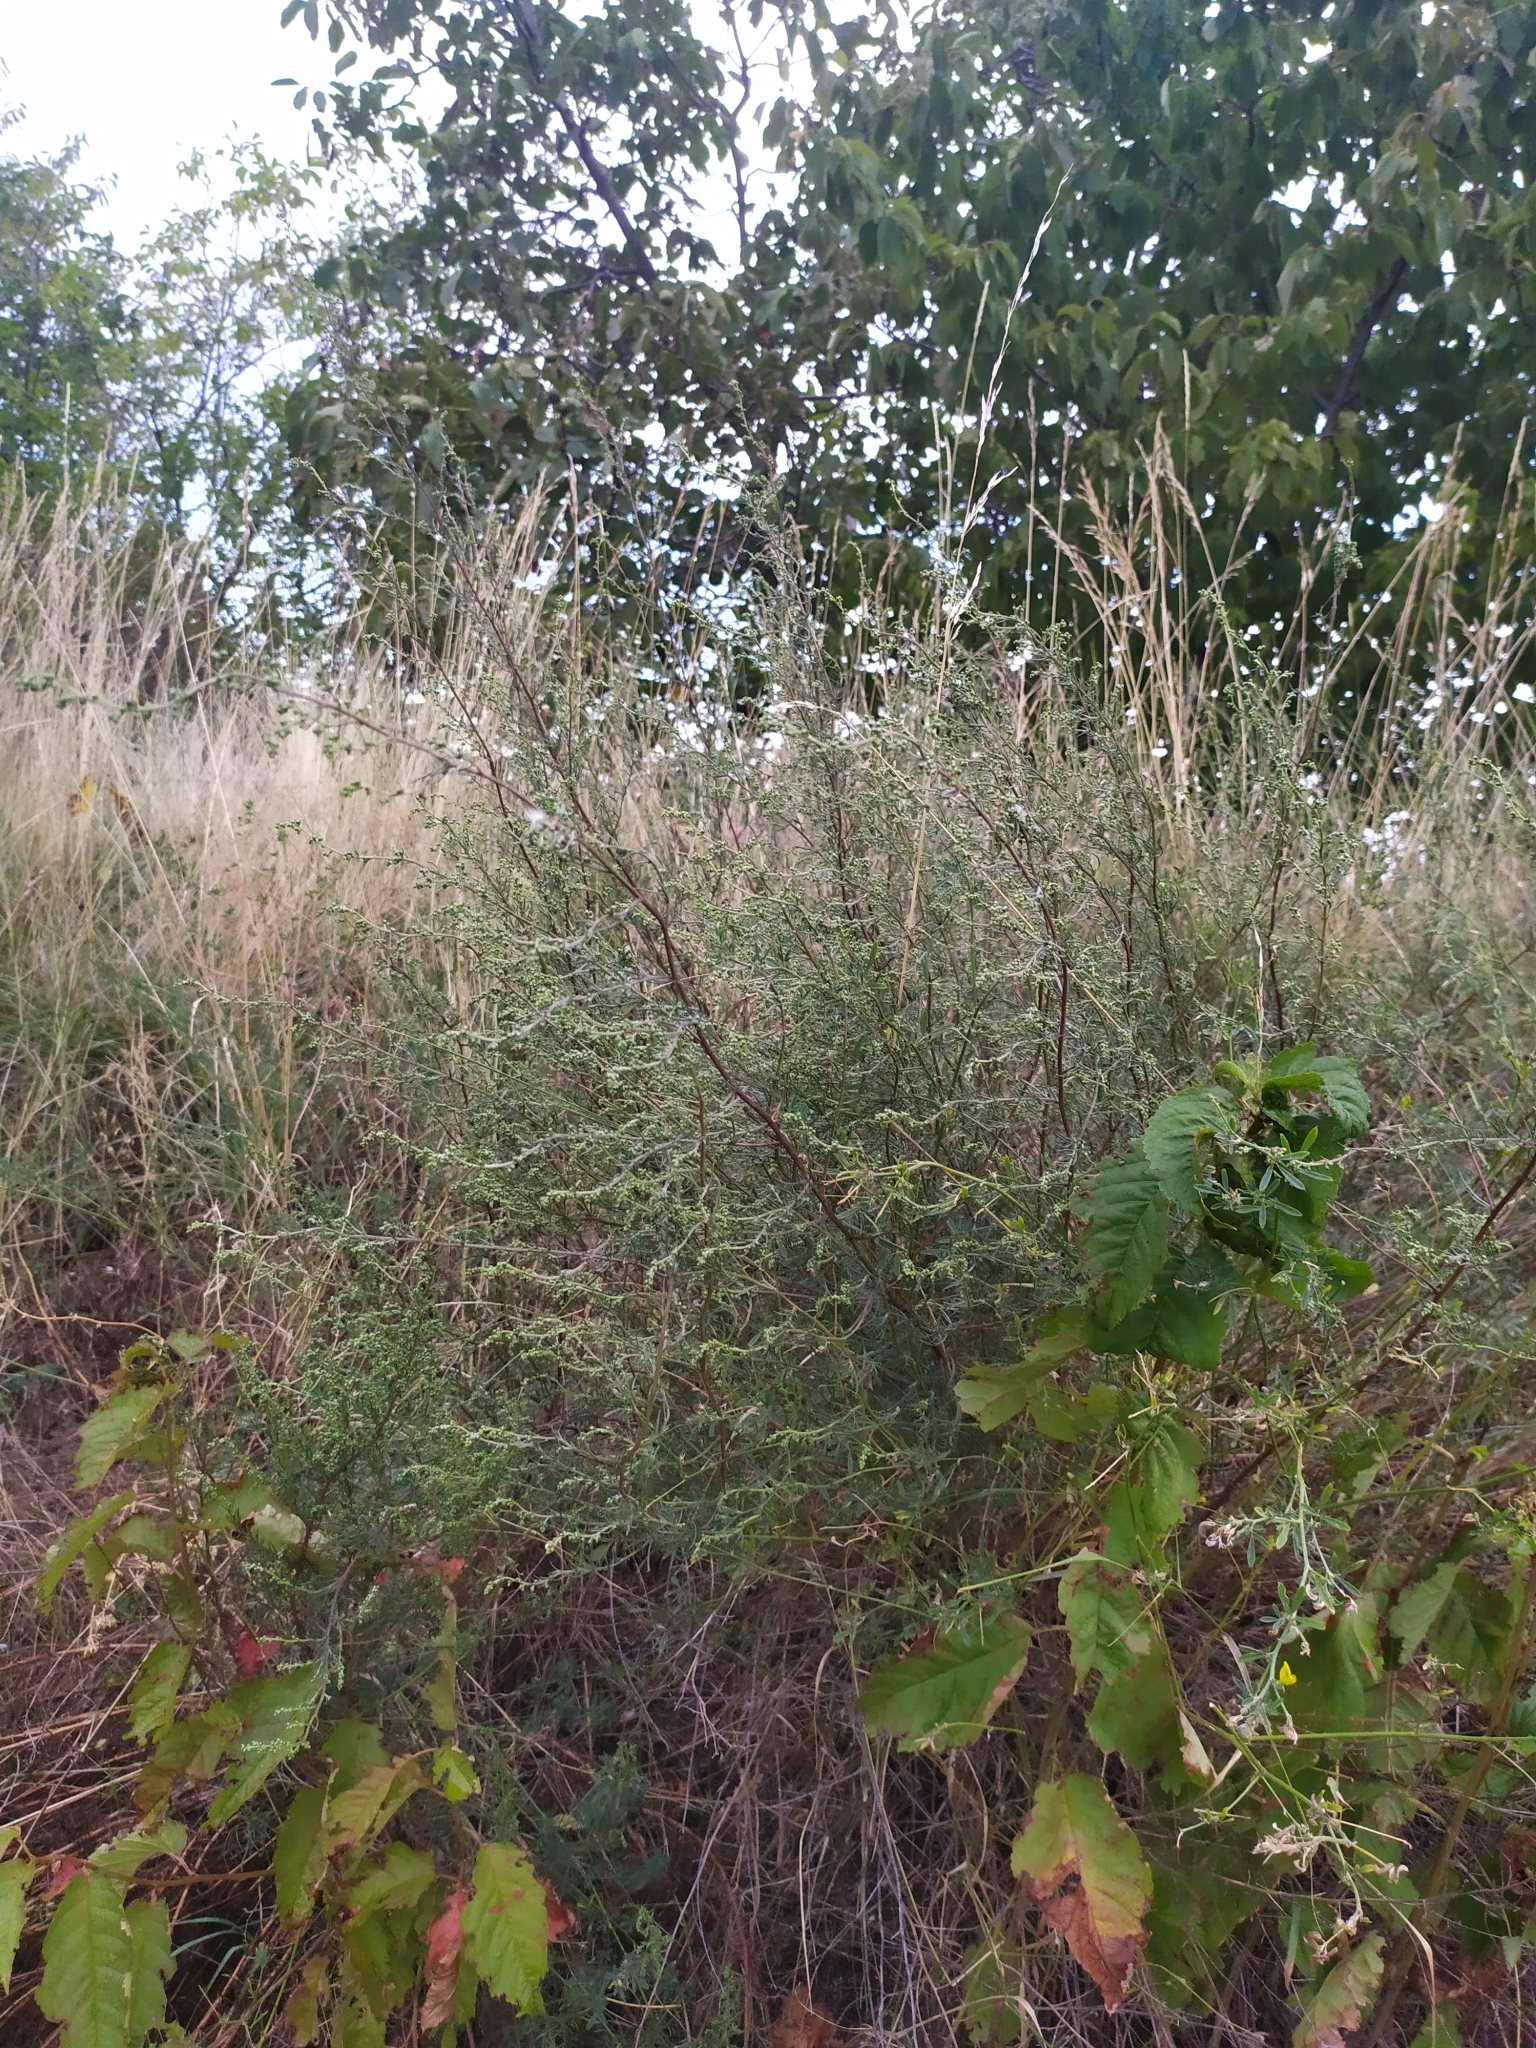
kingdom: Plantae
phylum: Tracheophyta
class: Magnoliopsida
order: Asterales
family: Asteraceae
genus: Artemisia
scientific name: Artemisia campestris
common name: Field wormwood
